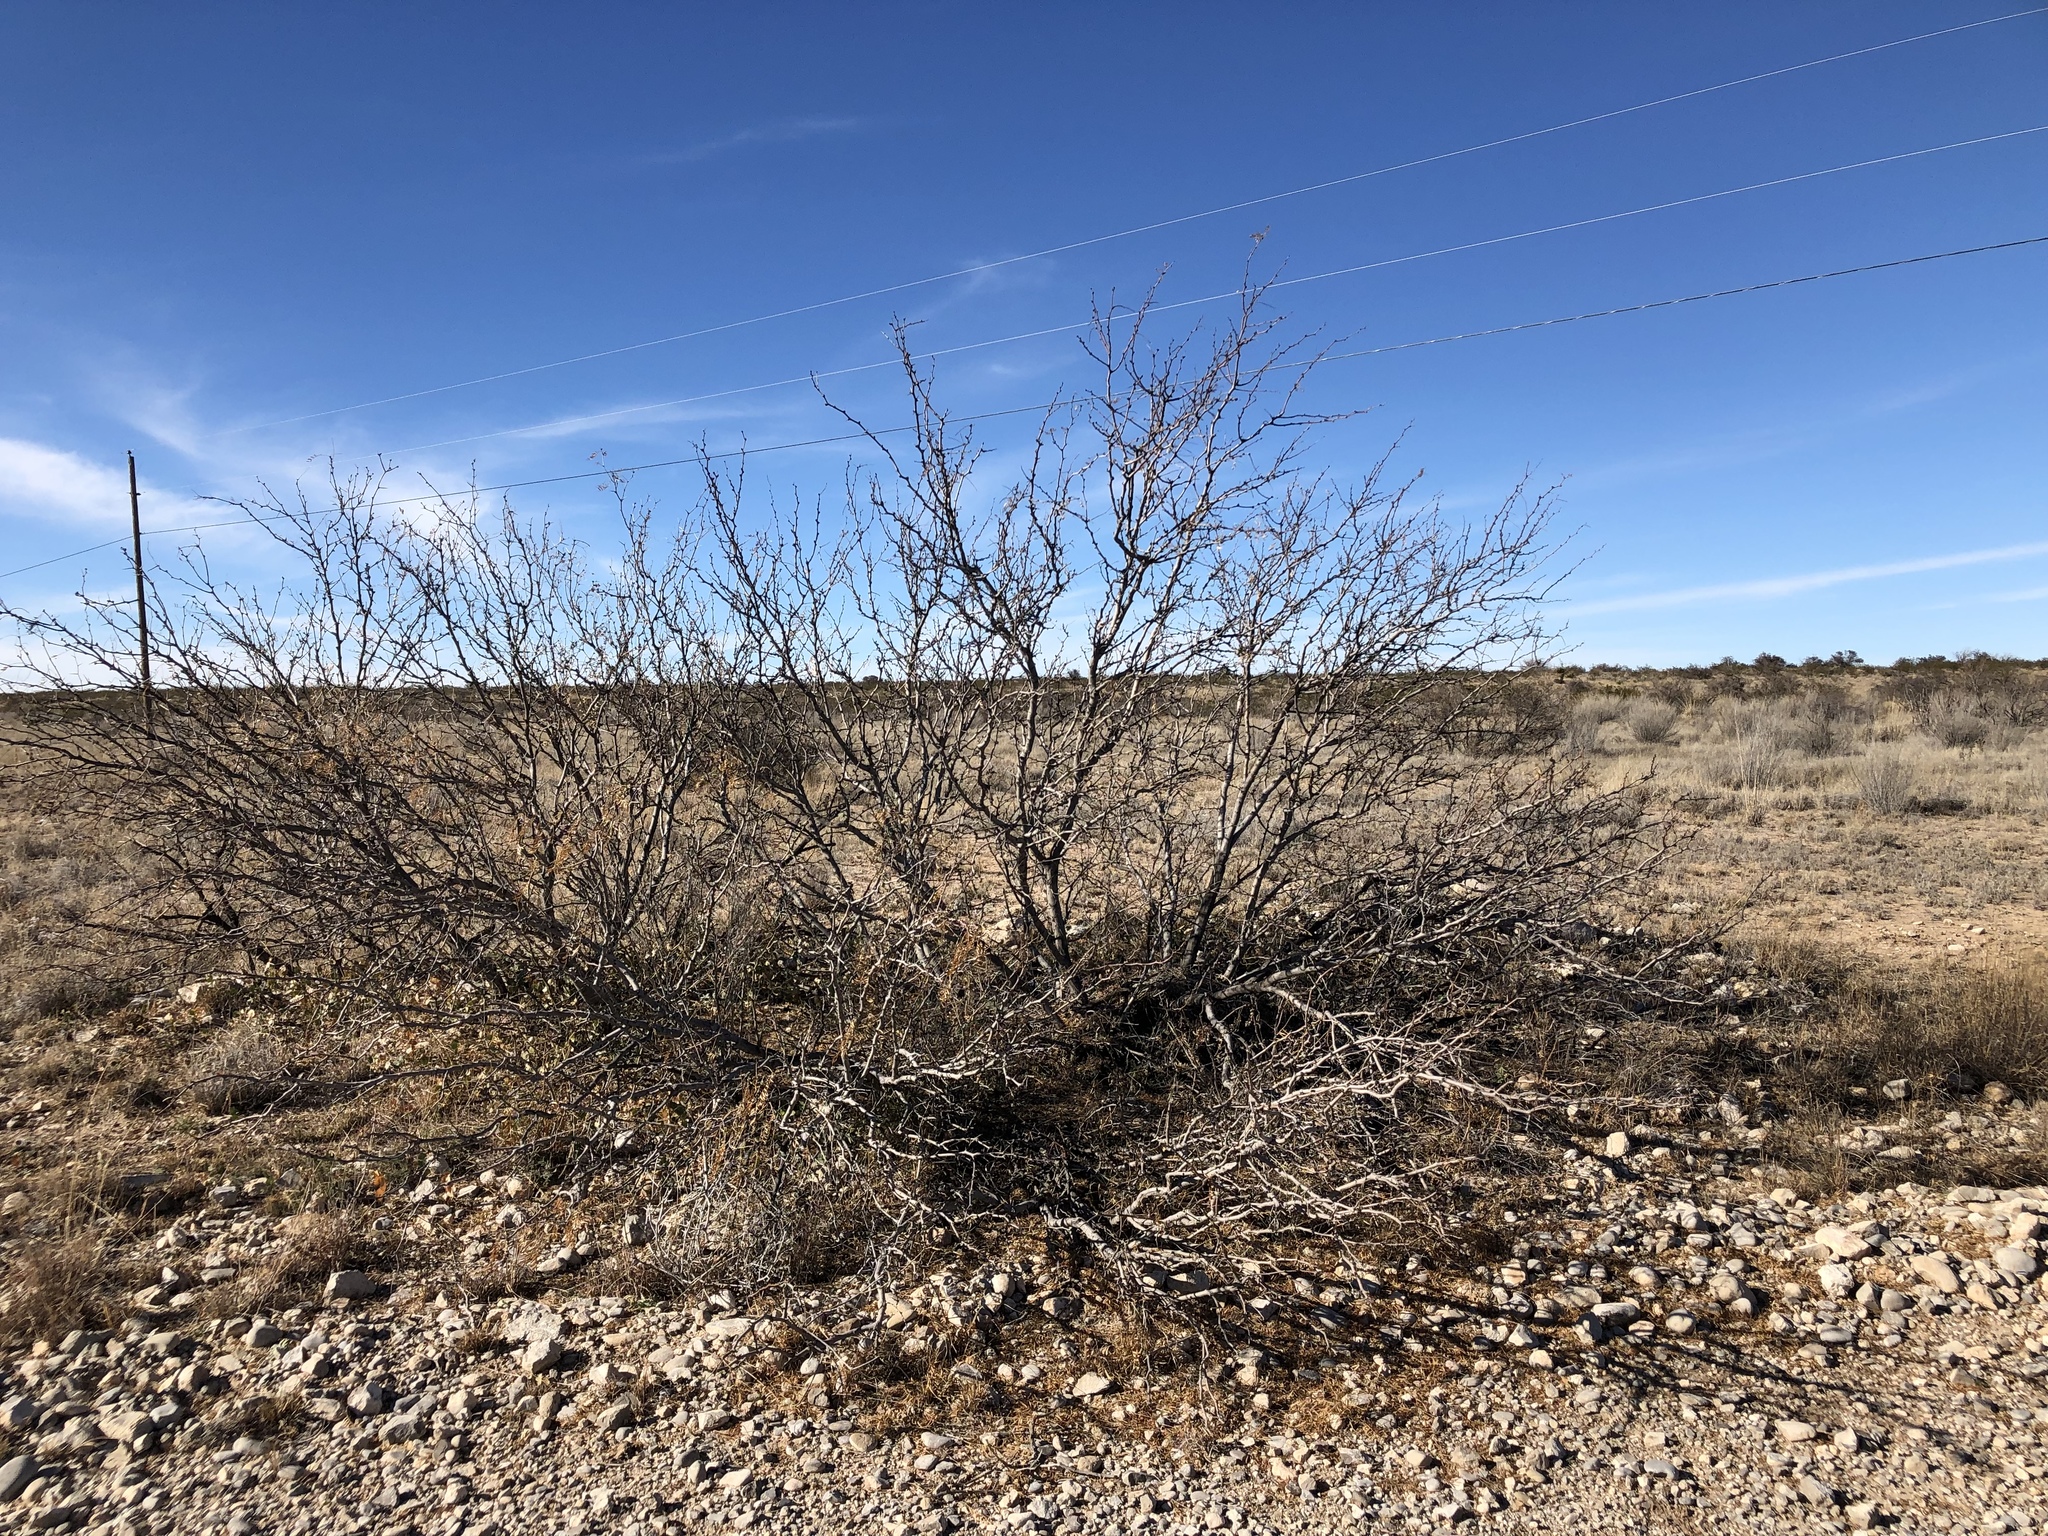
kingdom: Plantae
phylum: Tracheophyta
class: Magnoliopsida
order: Fabales
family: Fabaceae
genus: Prosopis
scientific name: Prosopis glandulosa
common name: Honey mesquite
